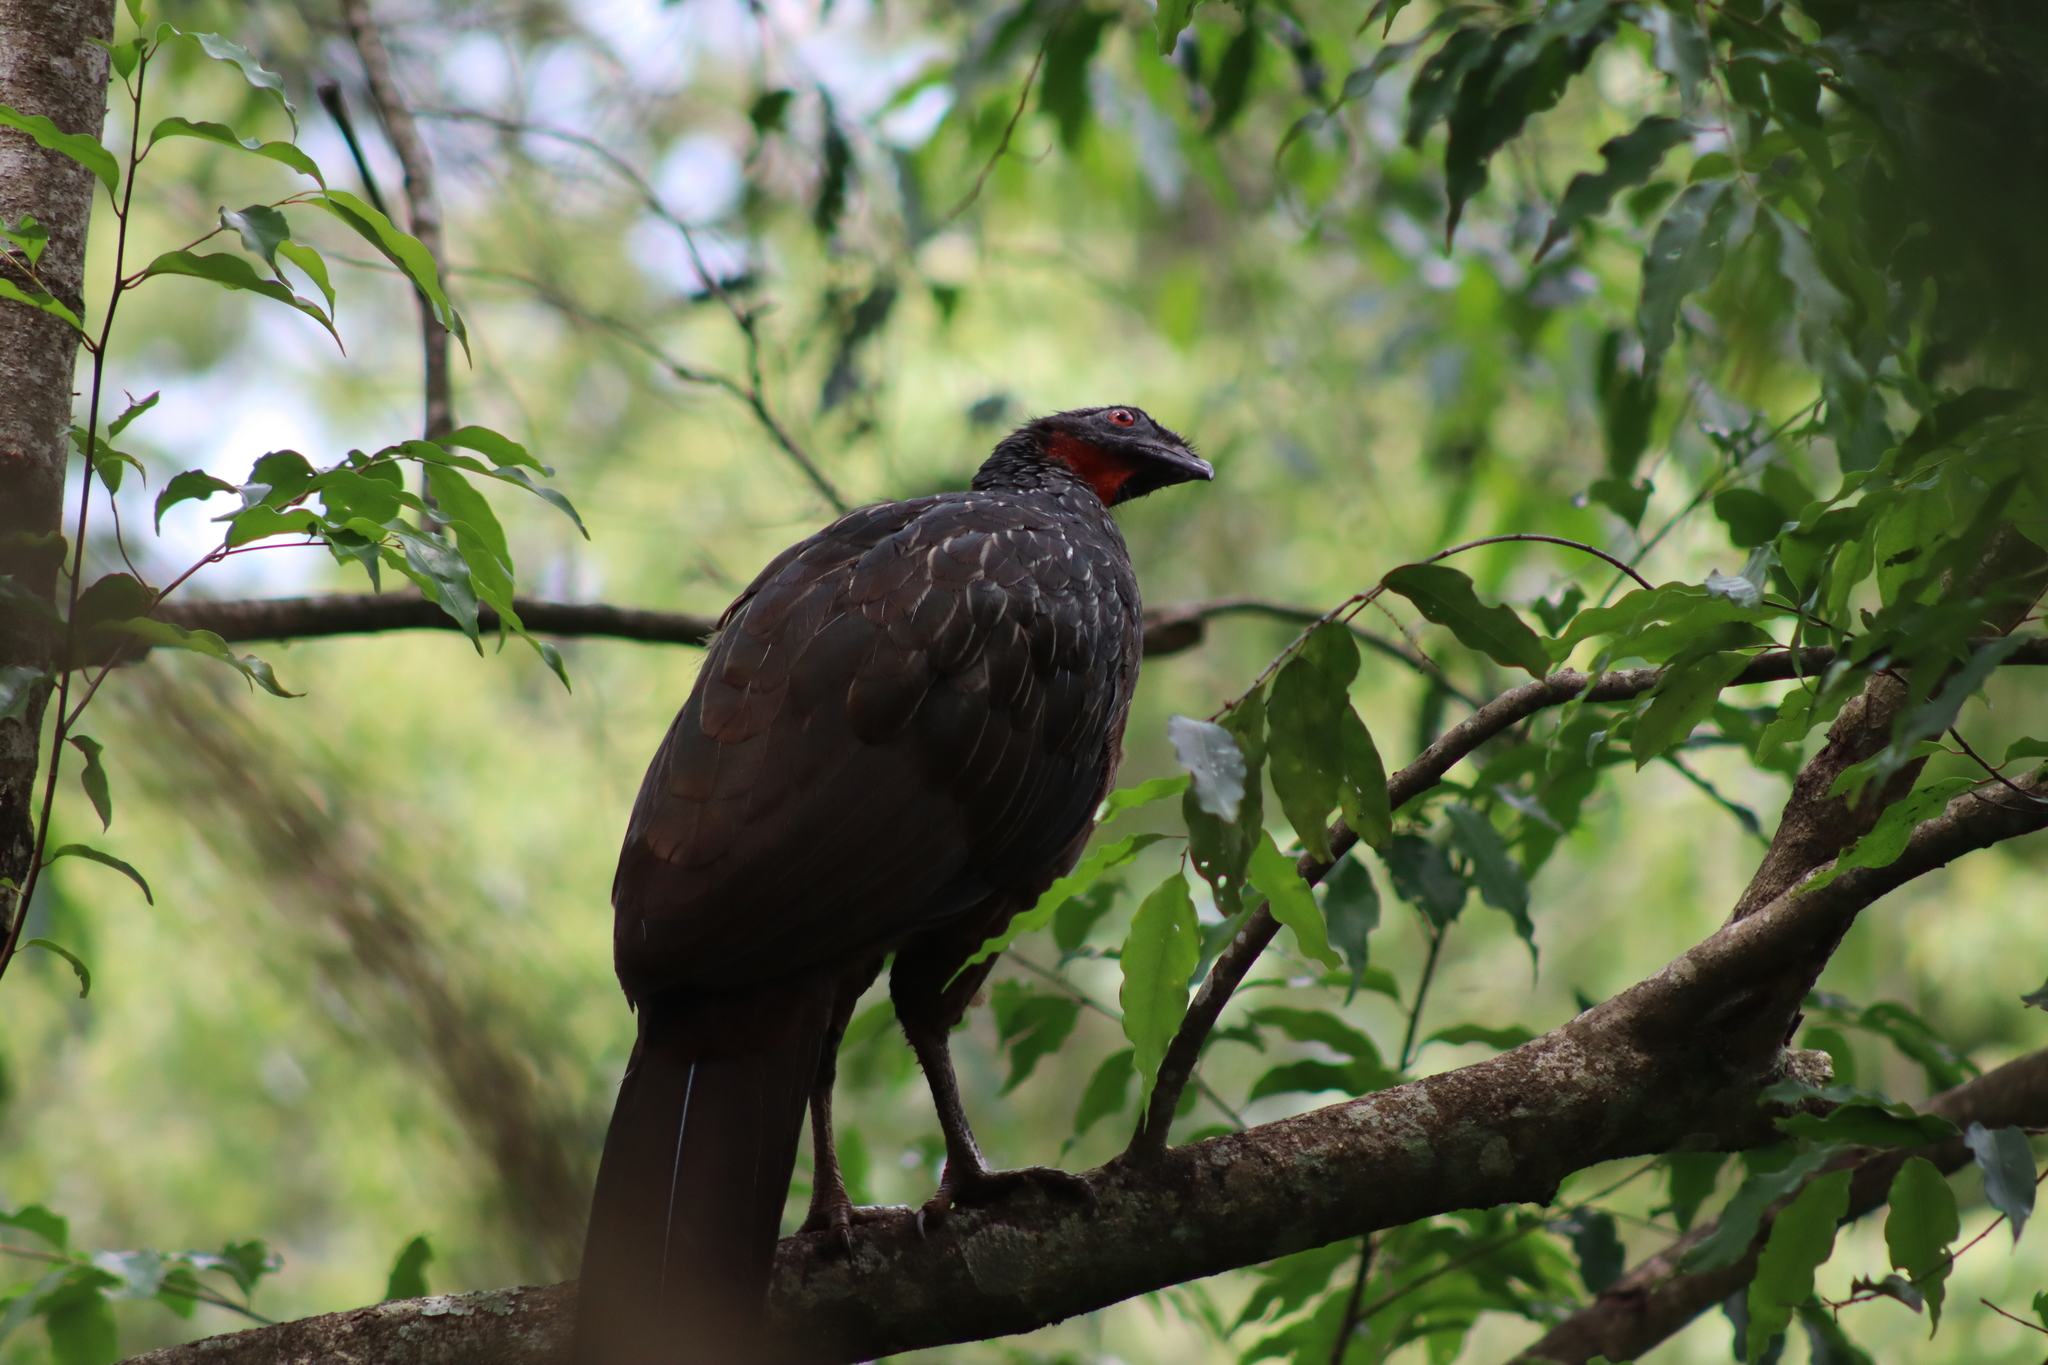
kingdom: Animalia
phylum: Chordata
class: Aves
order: Galliformes
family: Cracidae
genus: Penelope
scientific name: Penelope obscura
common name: Dusky-legged guan
